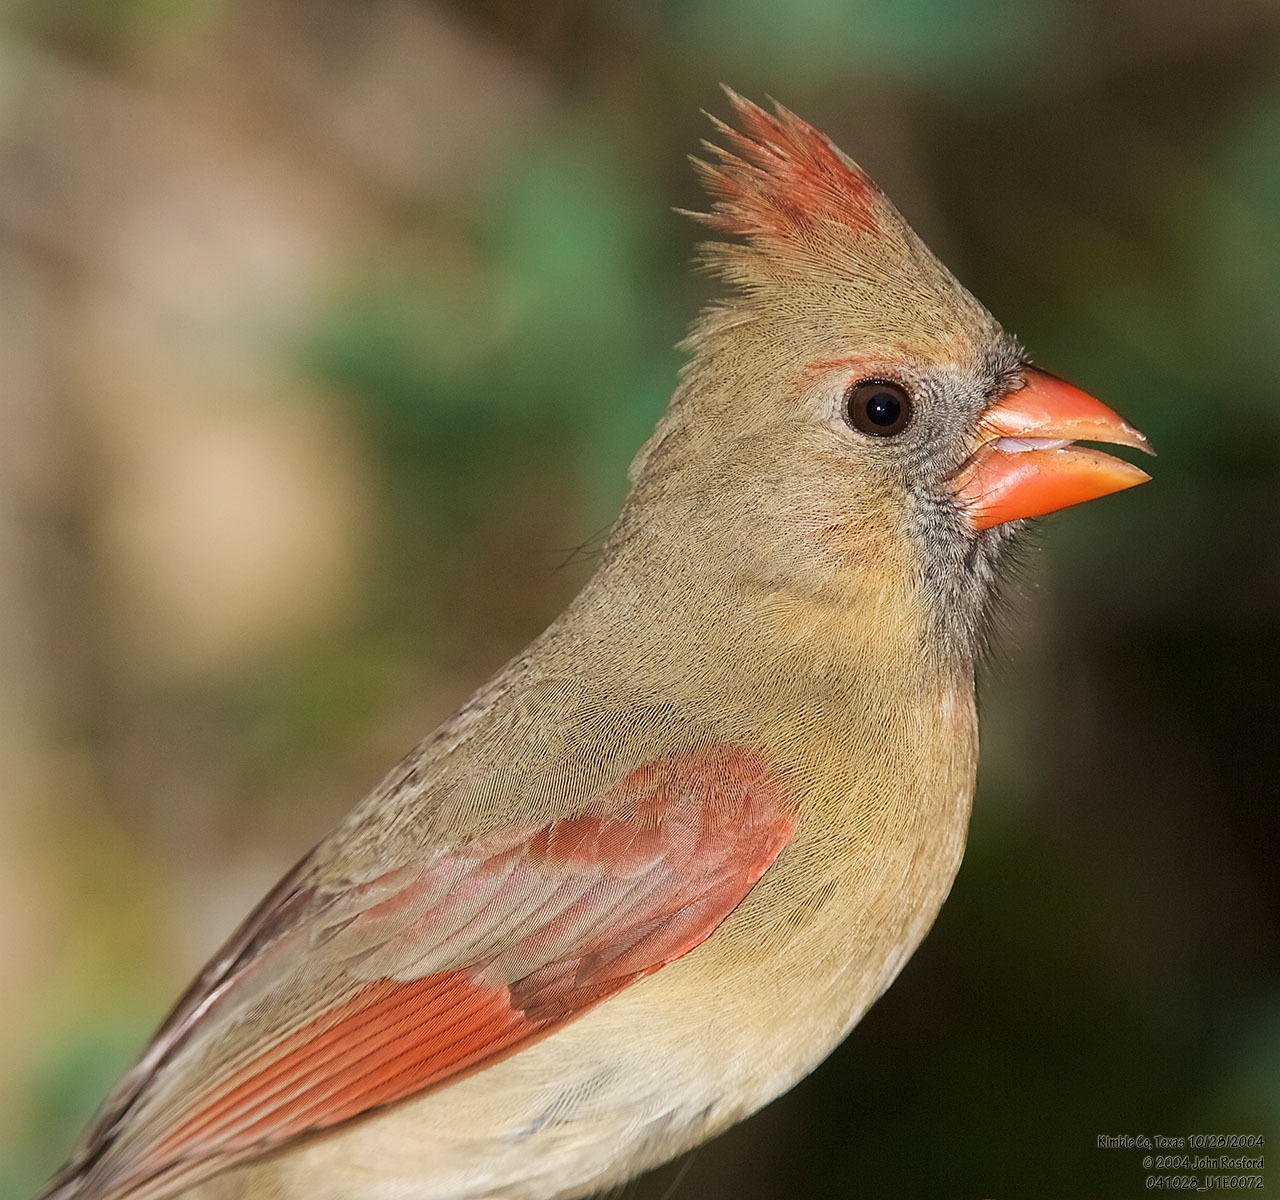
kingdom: Animalia
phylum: Chordata
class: Aves
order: Passeriformes
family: Cardinalidae
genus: Cardinalis
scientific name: Cardinalis cardinalis
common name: Northern cardinal
